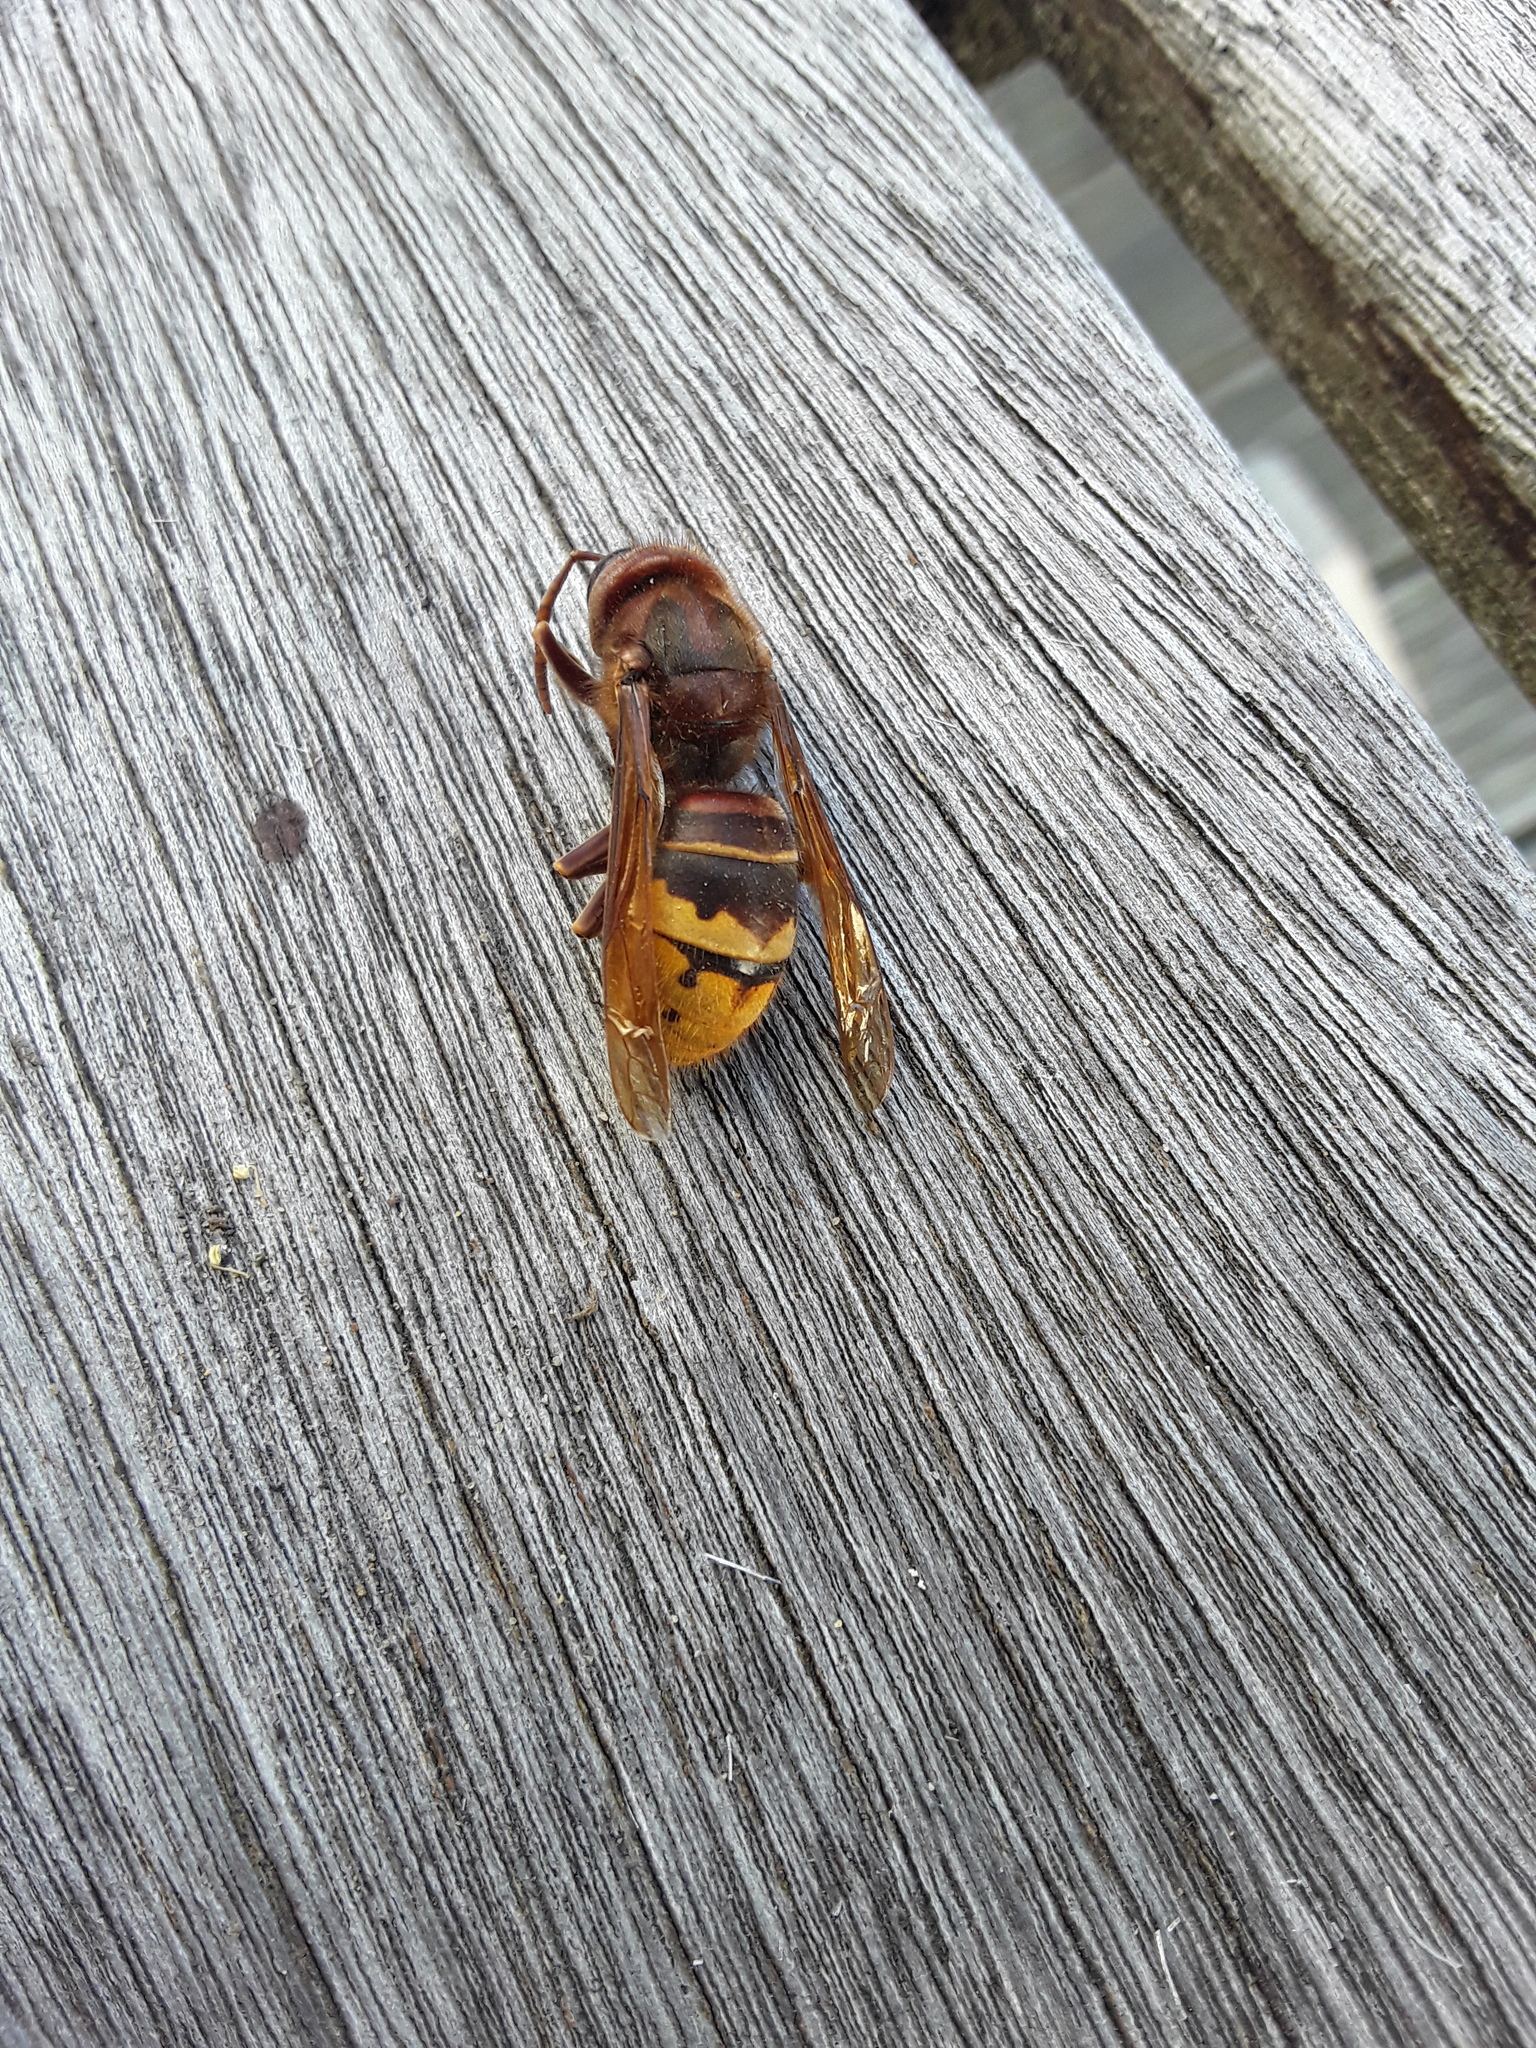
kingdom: Animalia
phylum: Arthropoda
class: Insecta
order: Hymenoptera
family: Vespidae
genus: Vespa
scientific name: Vespa crabro
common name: Hornet
